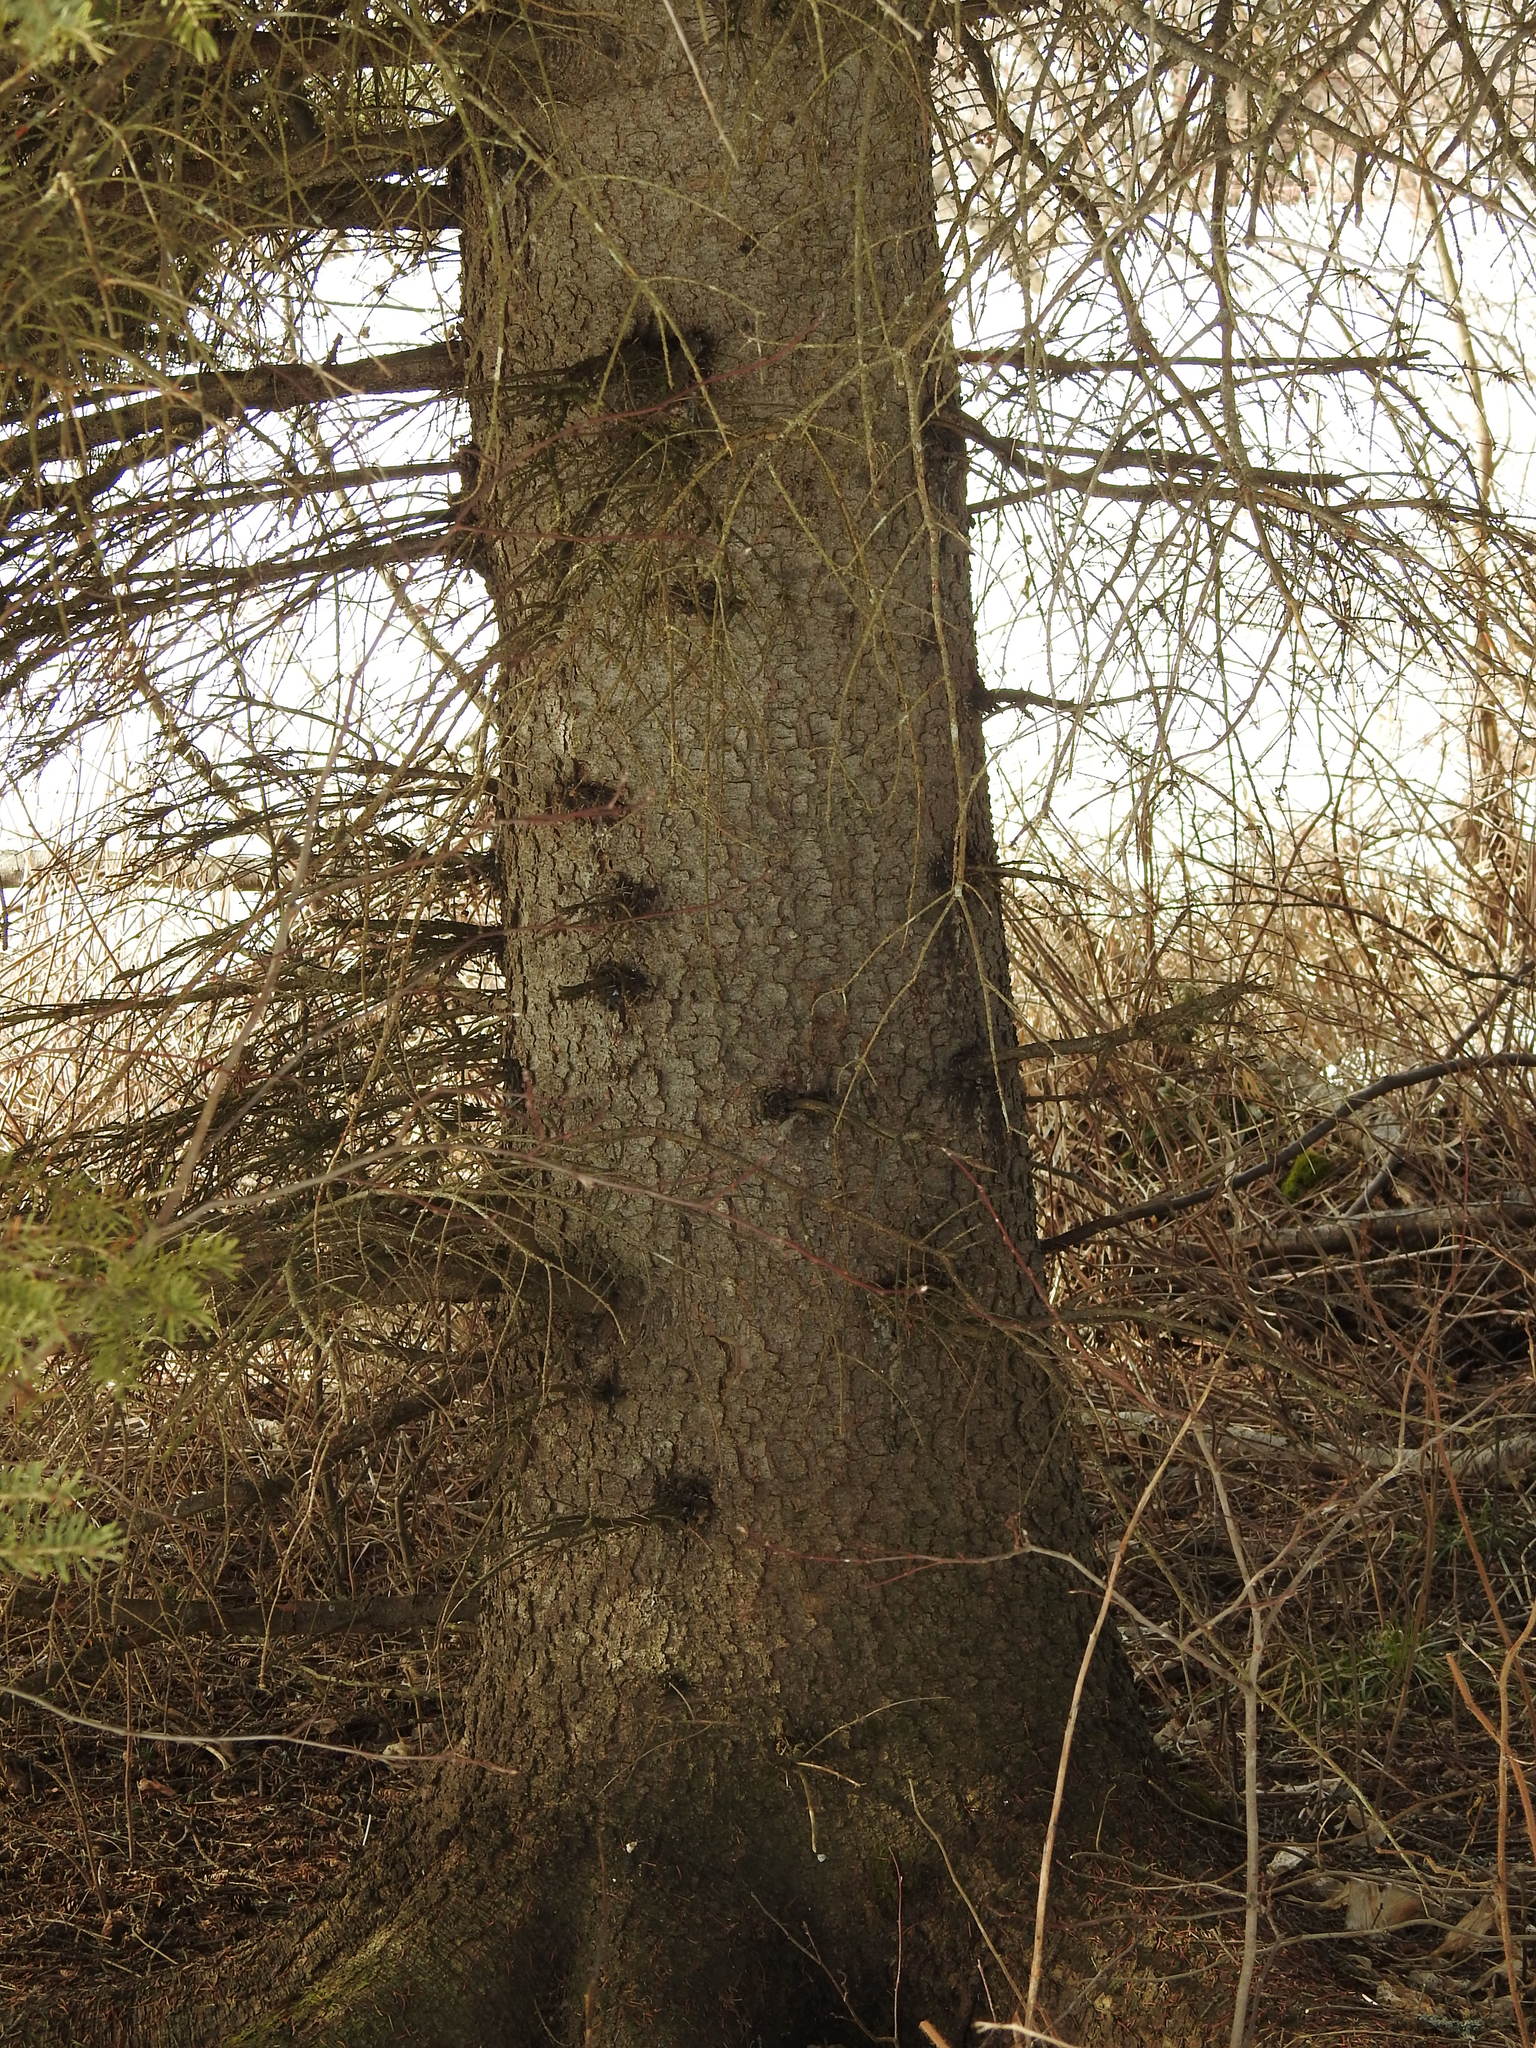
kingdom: Plantae
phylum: Tracheophyta
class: Pinopsida
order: Pinales
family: Pinaceae
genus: Picea
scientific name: Picea glauca
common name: White spruce
